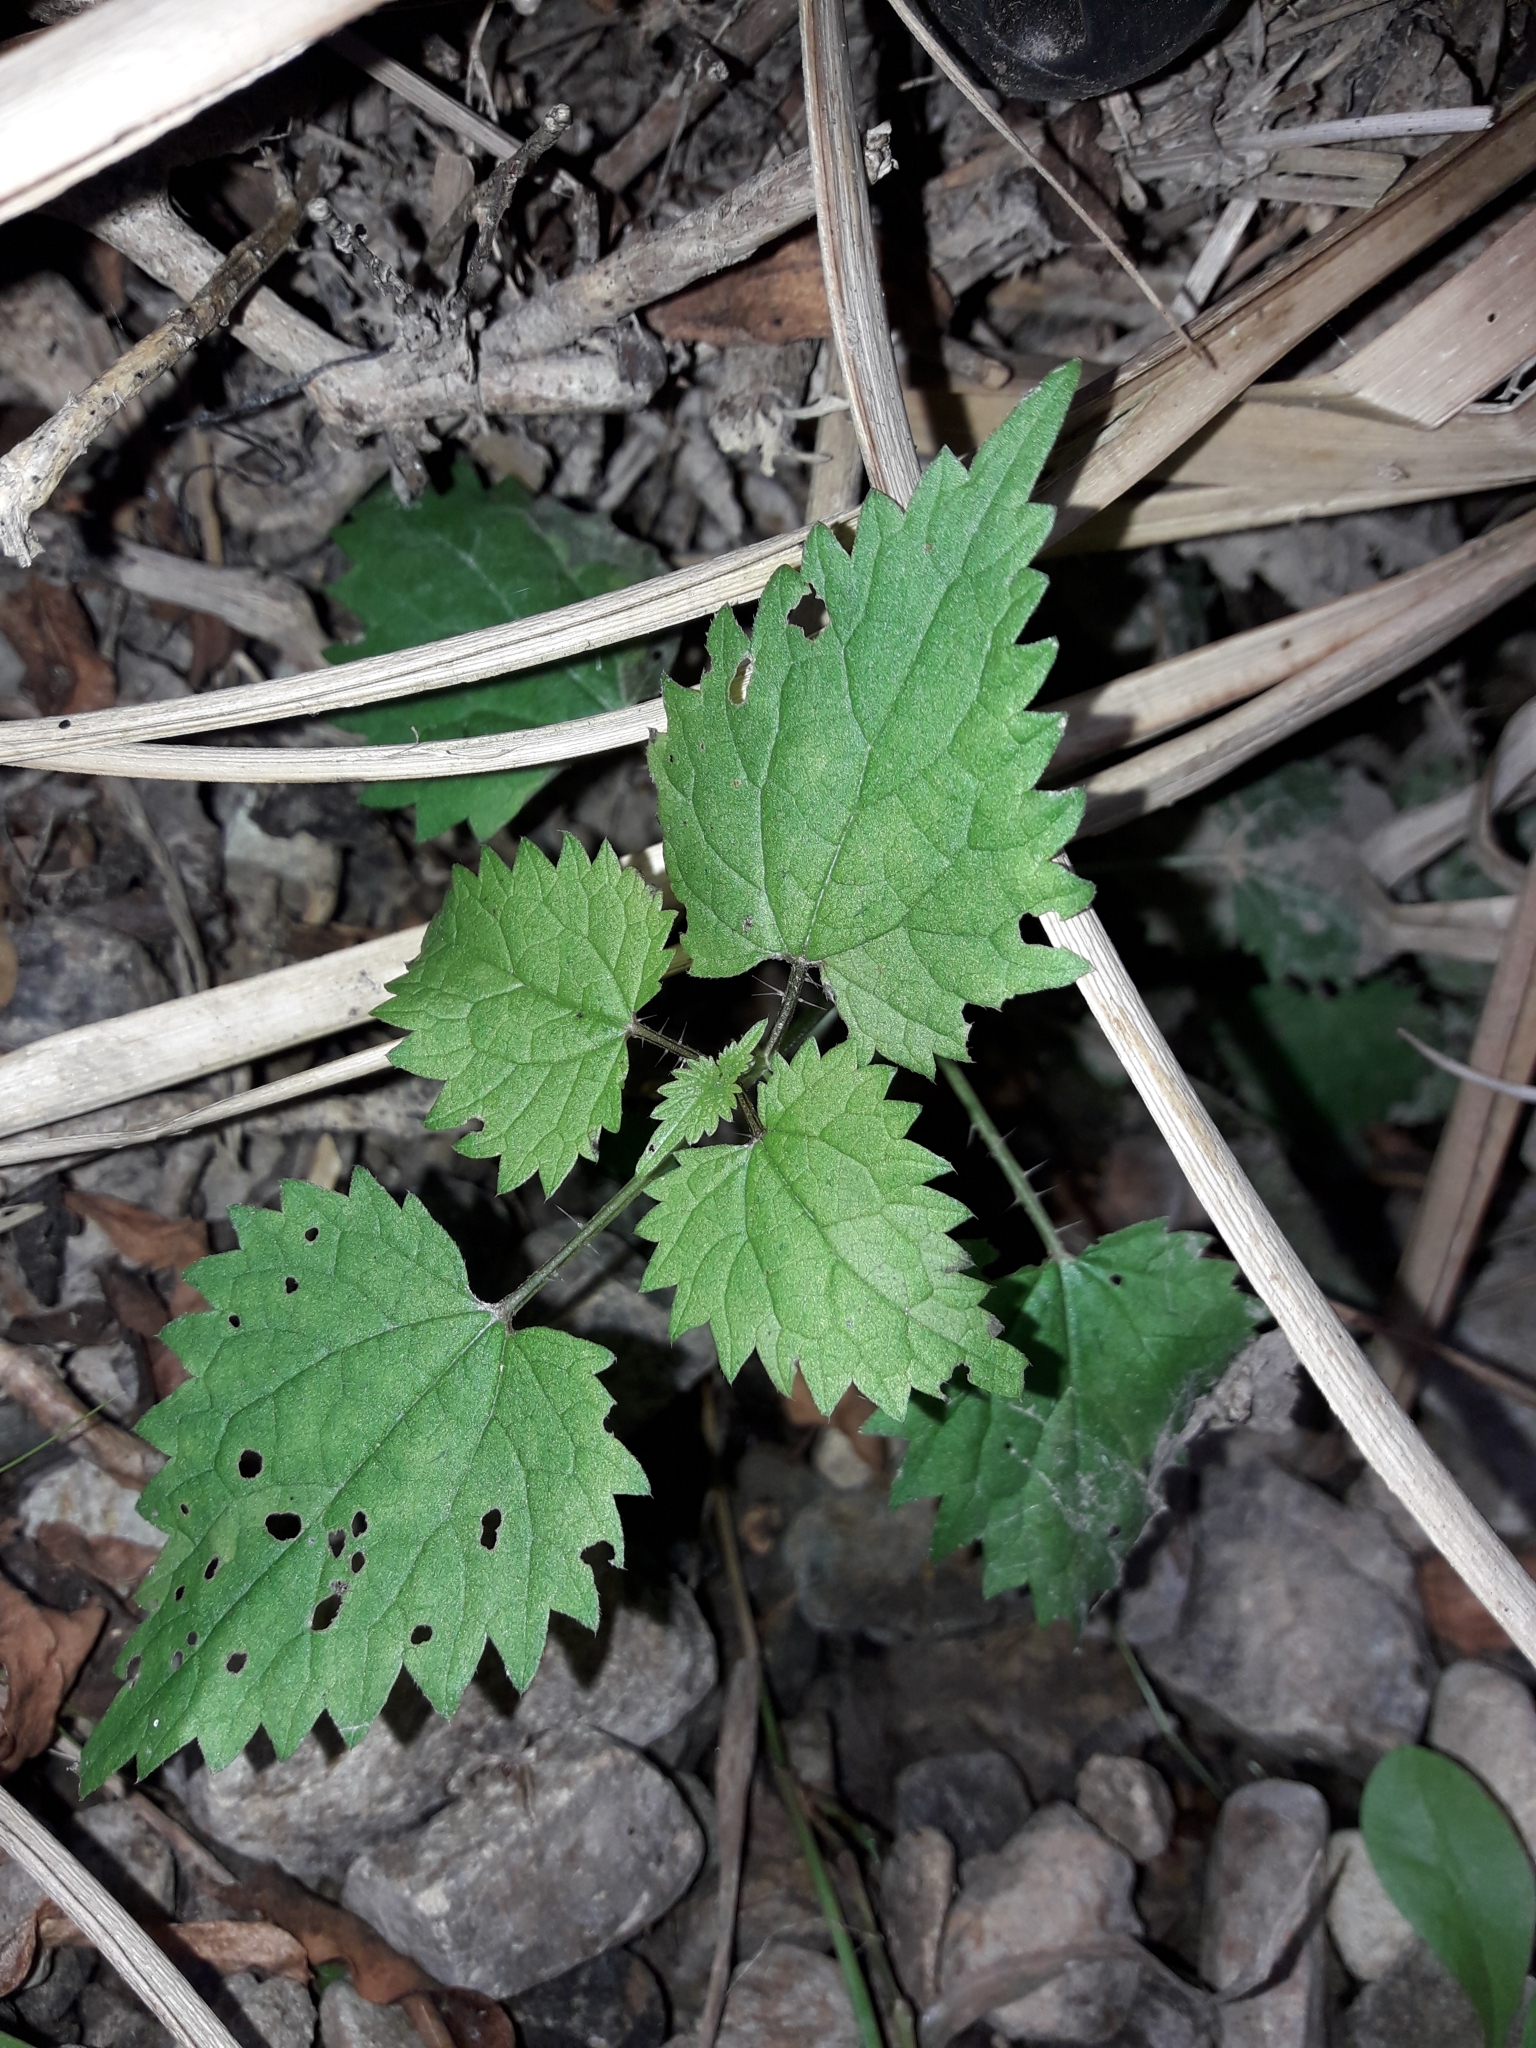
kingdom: Plantae
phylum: Tracheophyta
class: Magnoliopsida
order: Rosales
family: Urticaceae
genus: Urtica
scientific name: Urtica sykesii
